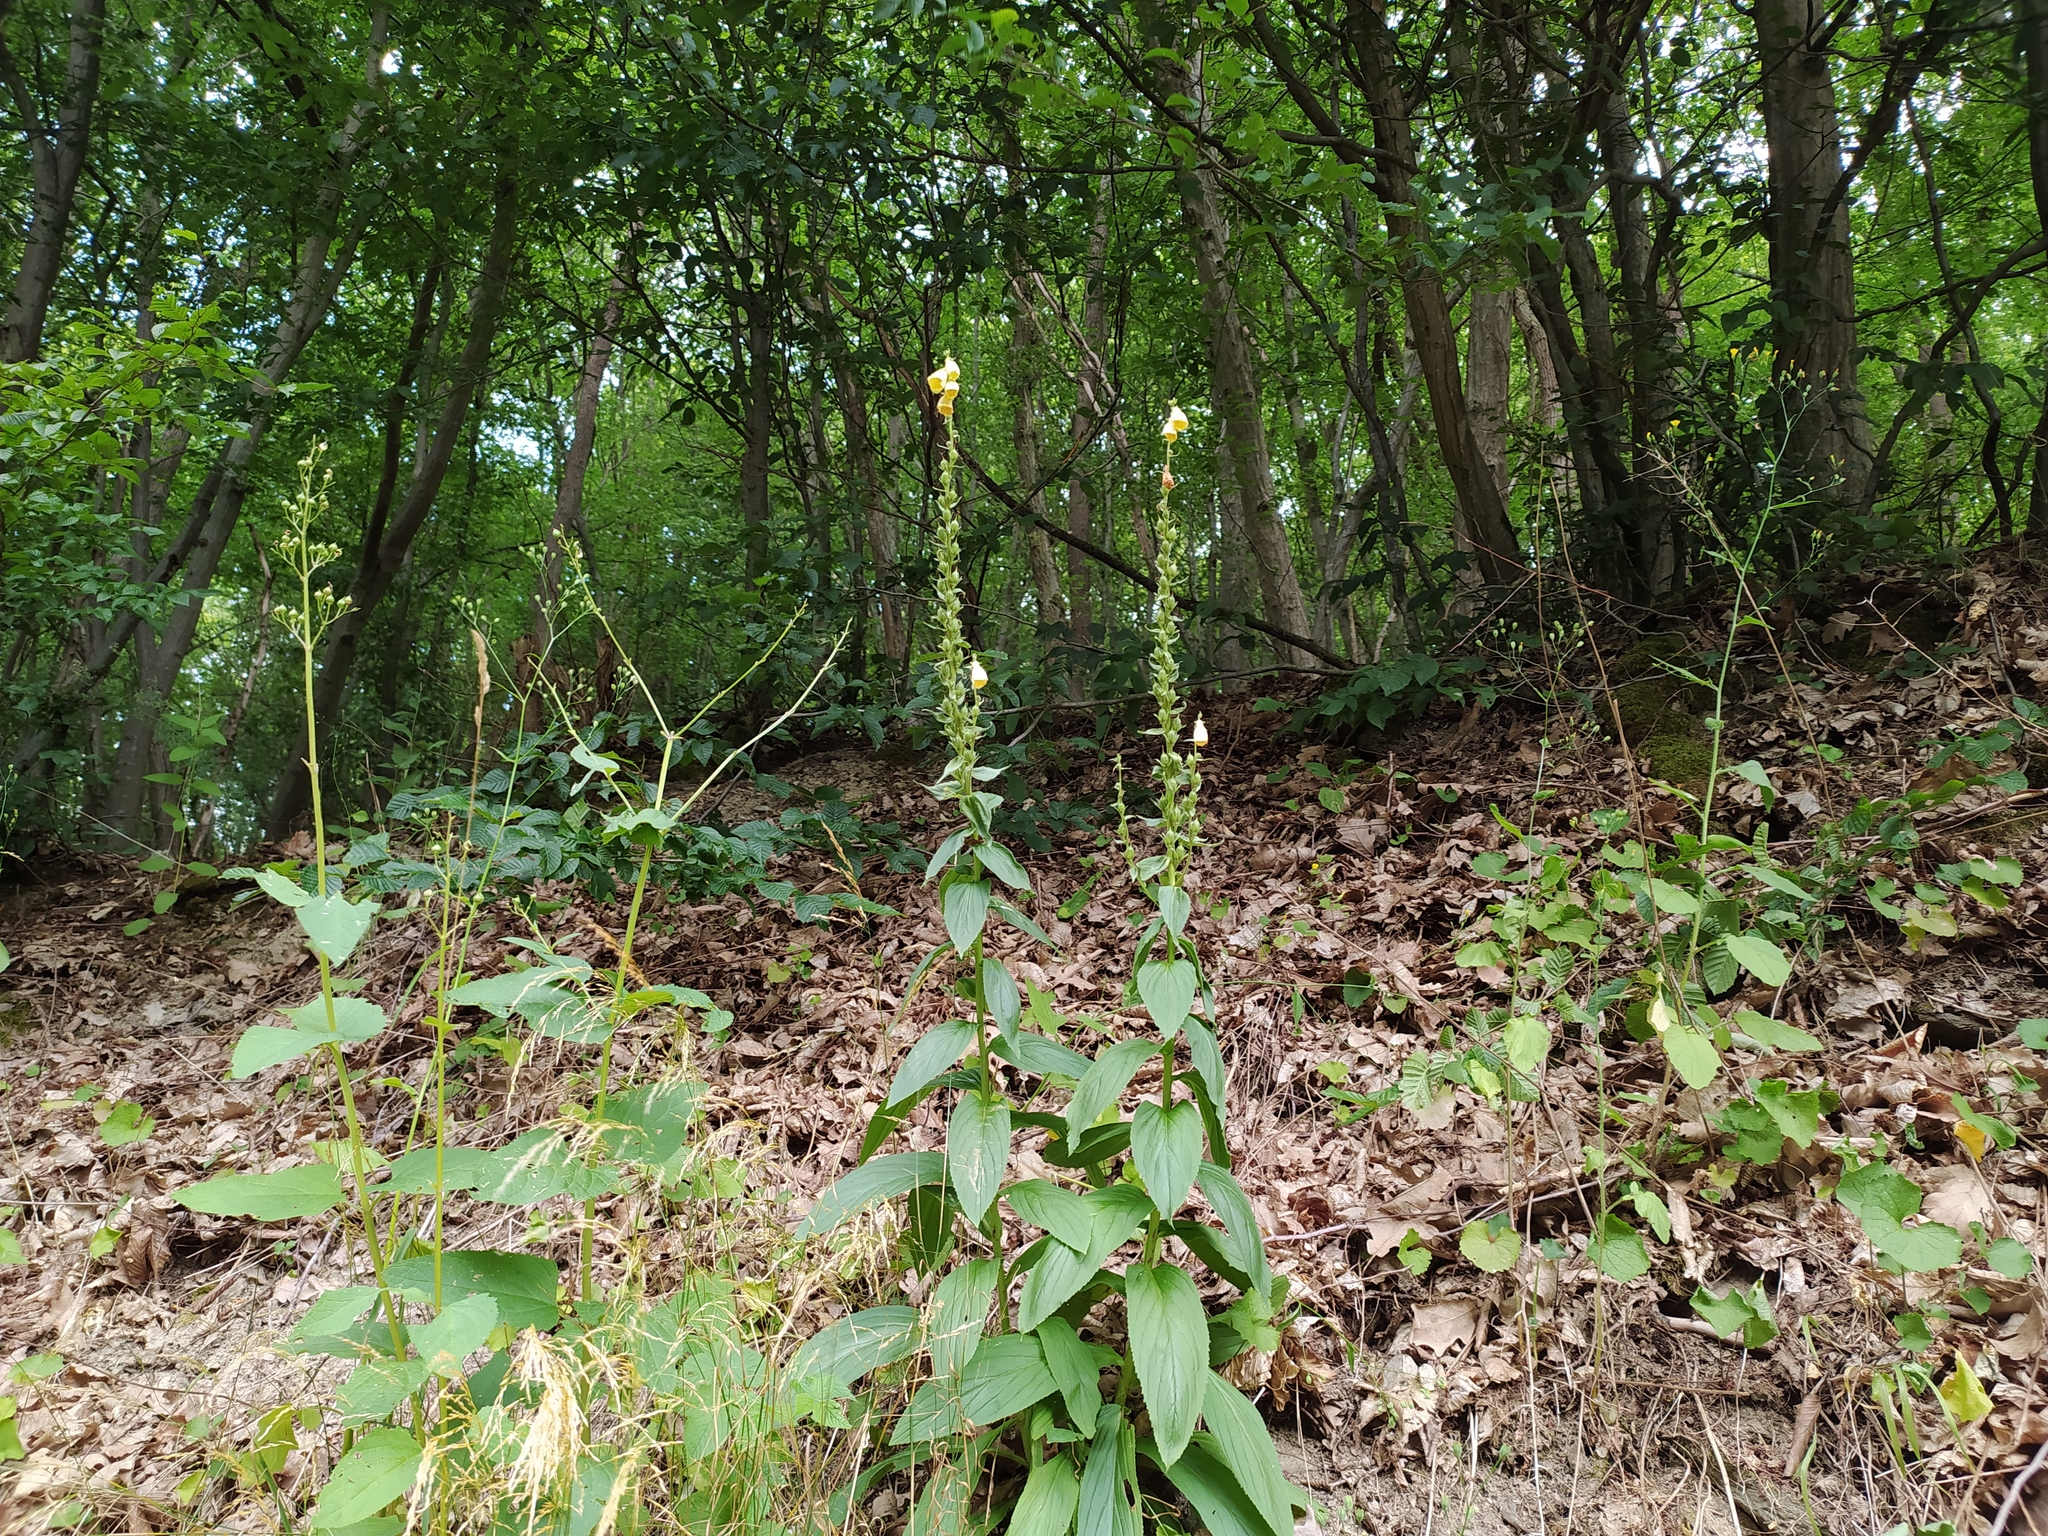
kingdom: Plantae
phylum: Tracheophyta
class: Magnoliopsida
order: Lamiales
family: Plantaginaceae
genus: Digitalis
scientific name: Digitalis grandiflora
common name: Yellow foxglove
